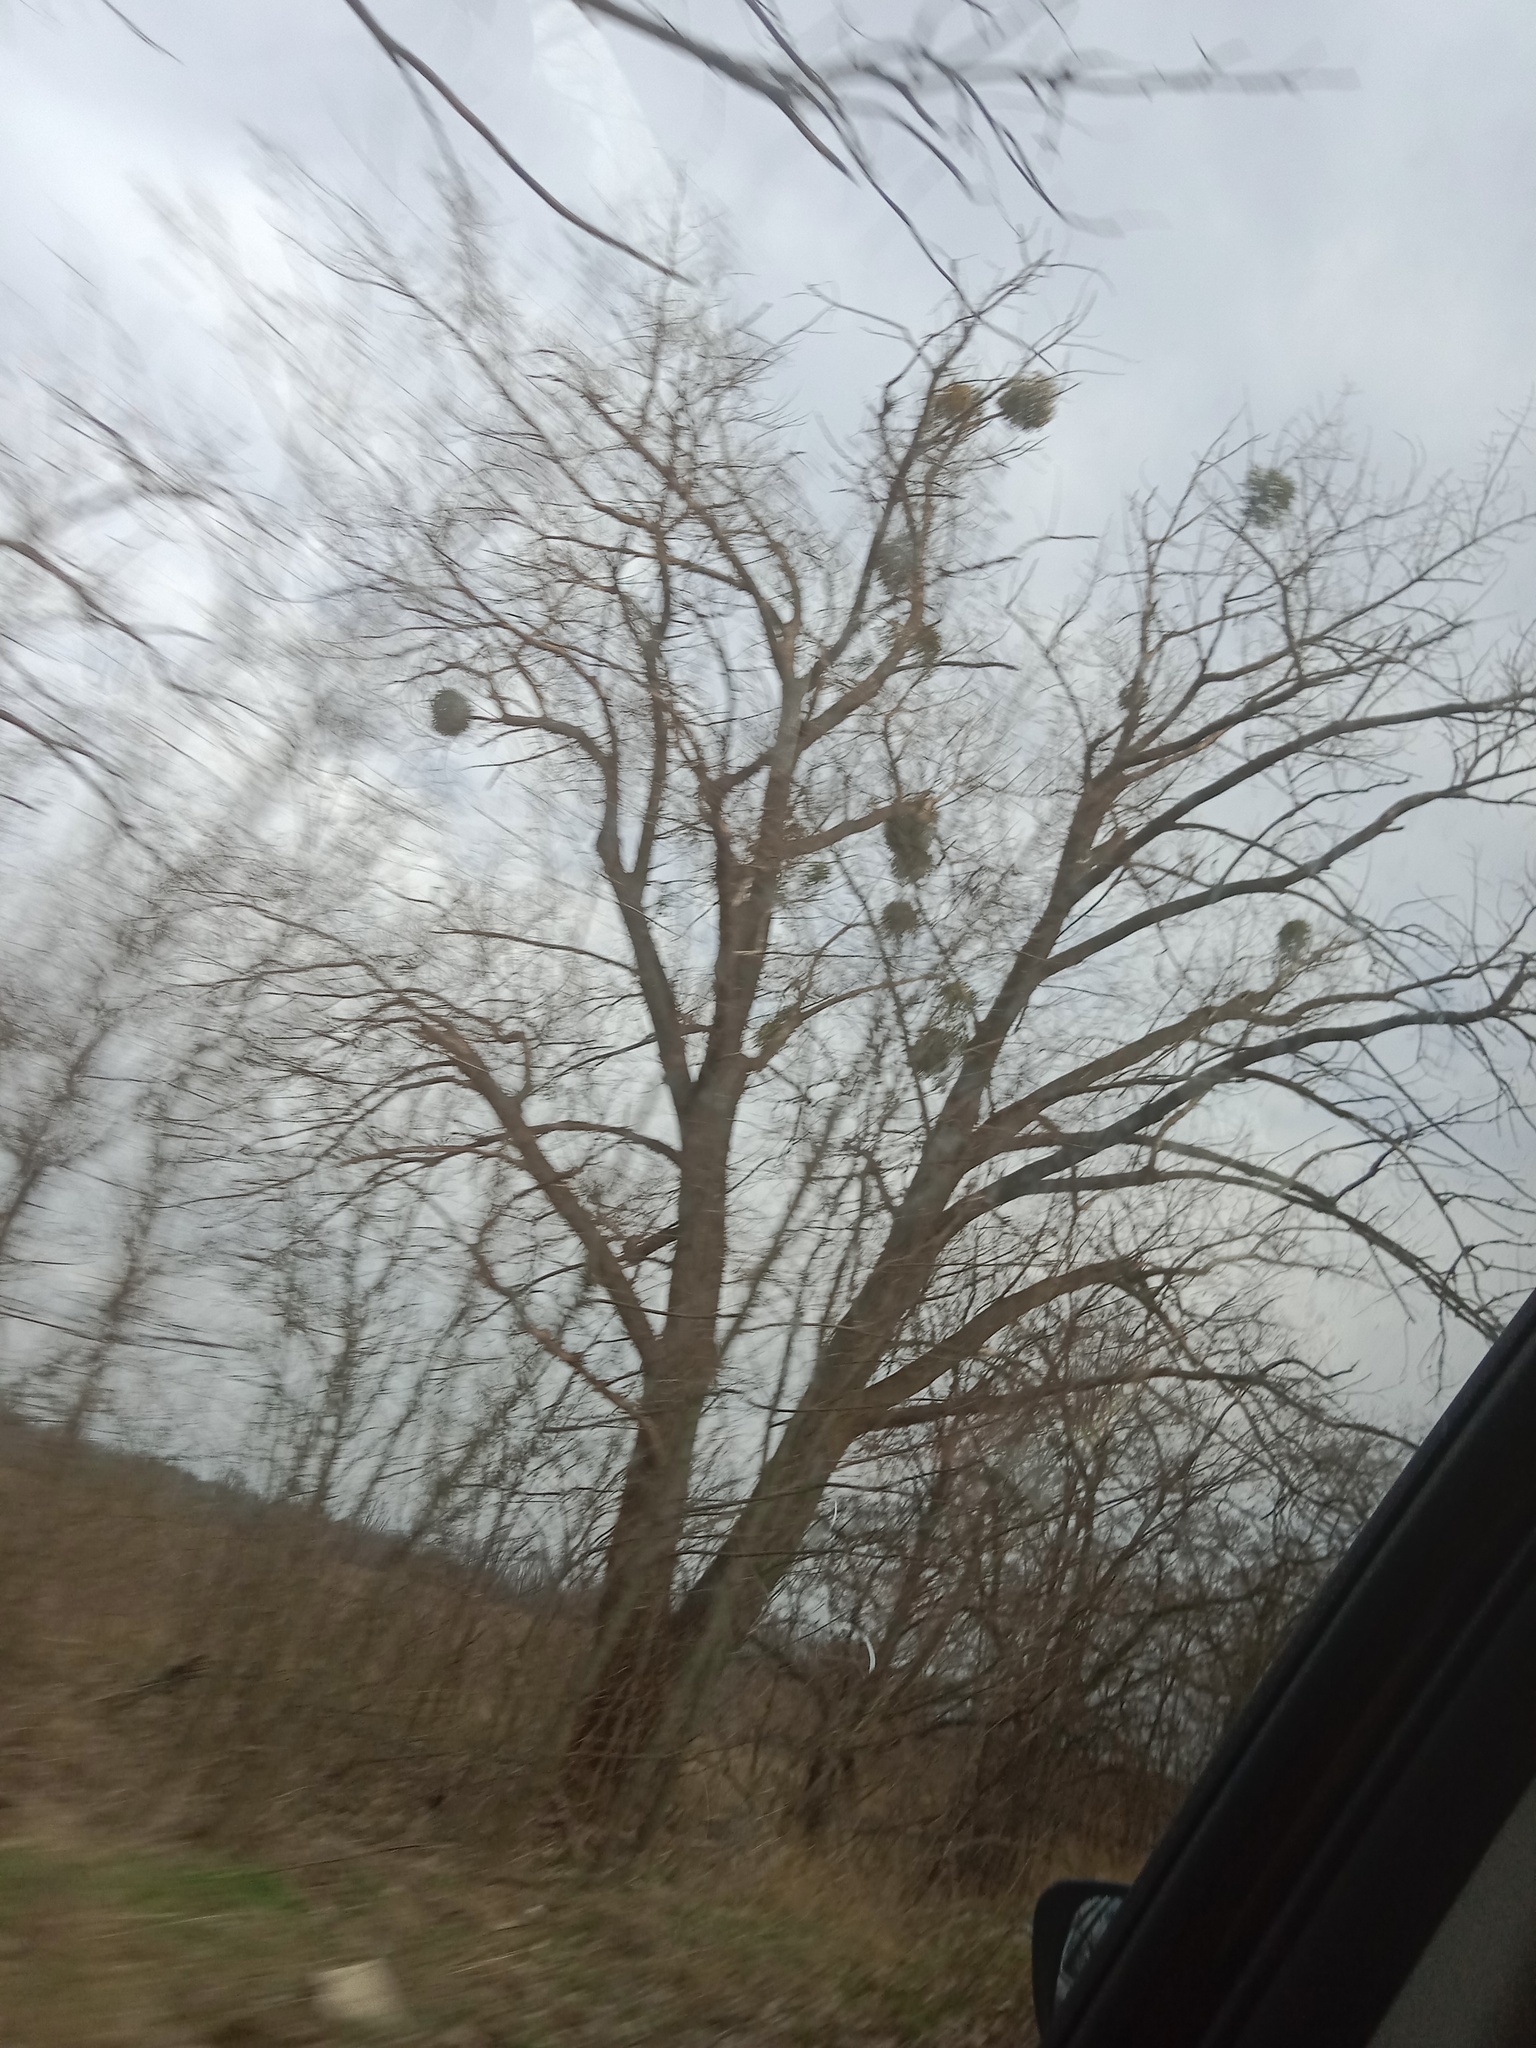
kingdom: Plantae
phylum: Tracheophyta
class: Magnoliopsida
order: Santalales
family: Viscaceae
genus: Viscum
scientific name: Viscum album
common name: Mistletoe
